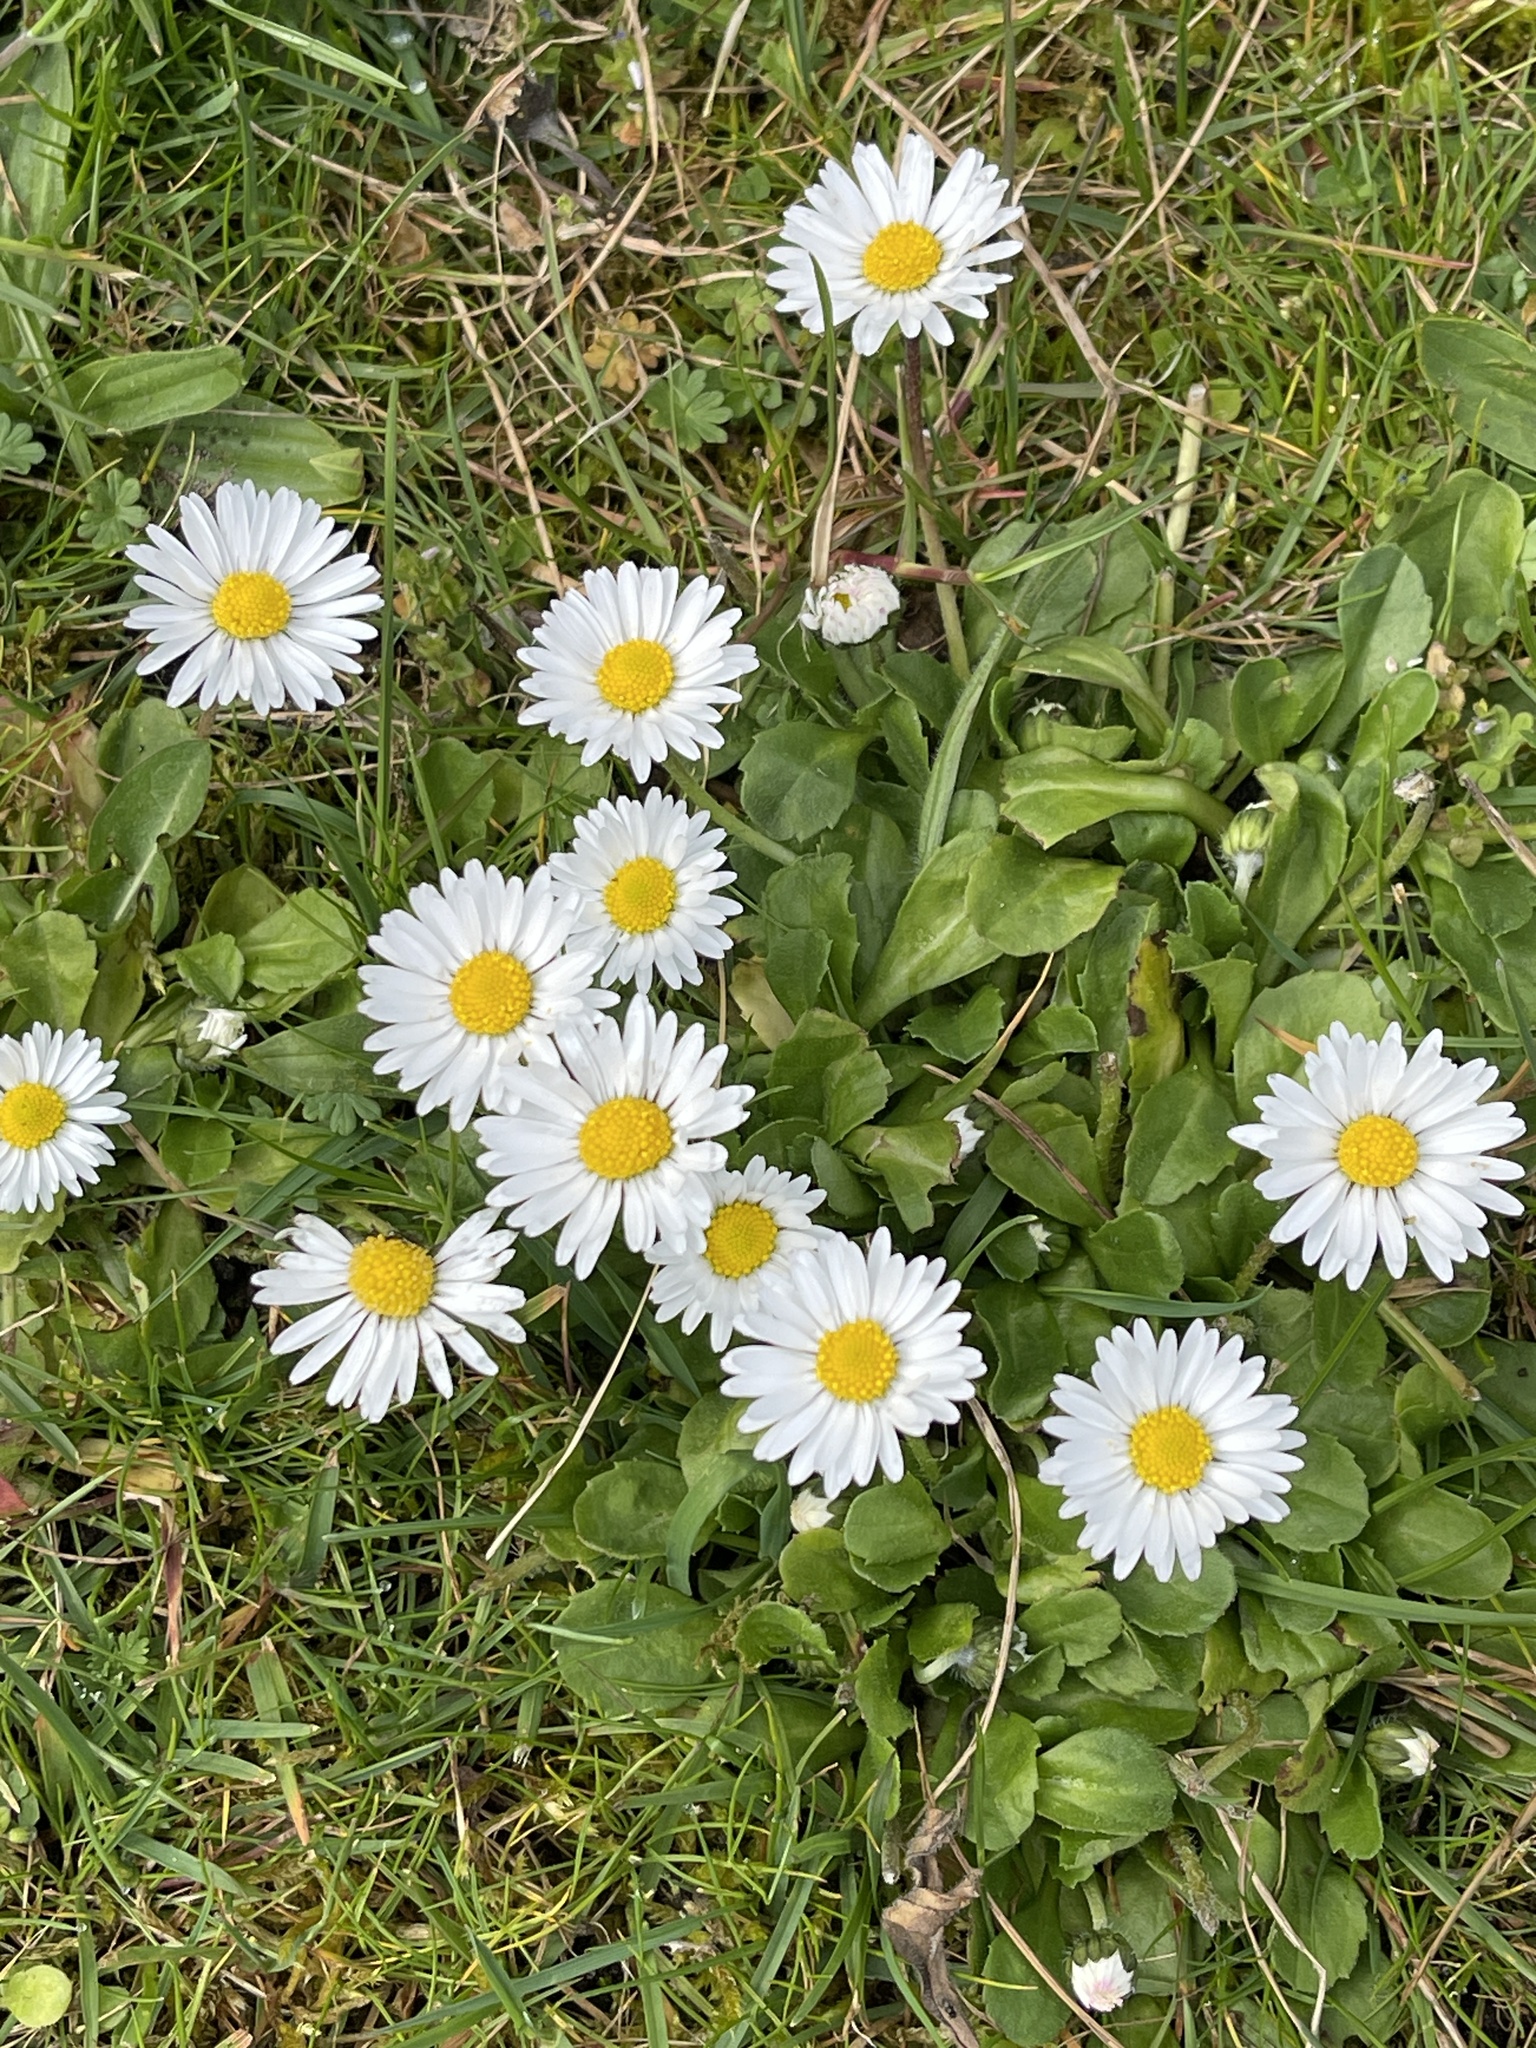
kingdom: Plantae
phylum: Tracheophyta
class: Magnoliopsida
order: Asterales
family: Asteraceae
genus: Bellis
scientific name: Bellis perennis
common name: Lawndaisy
